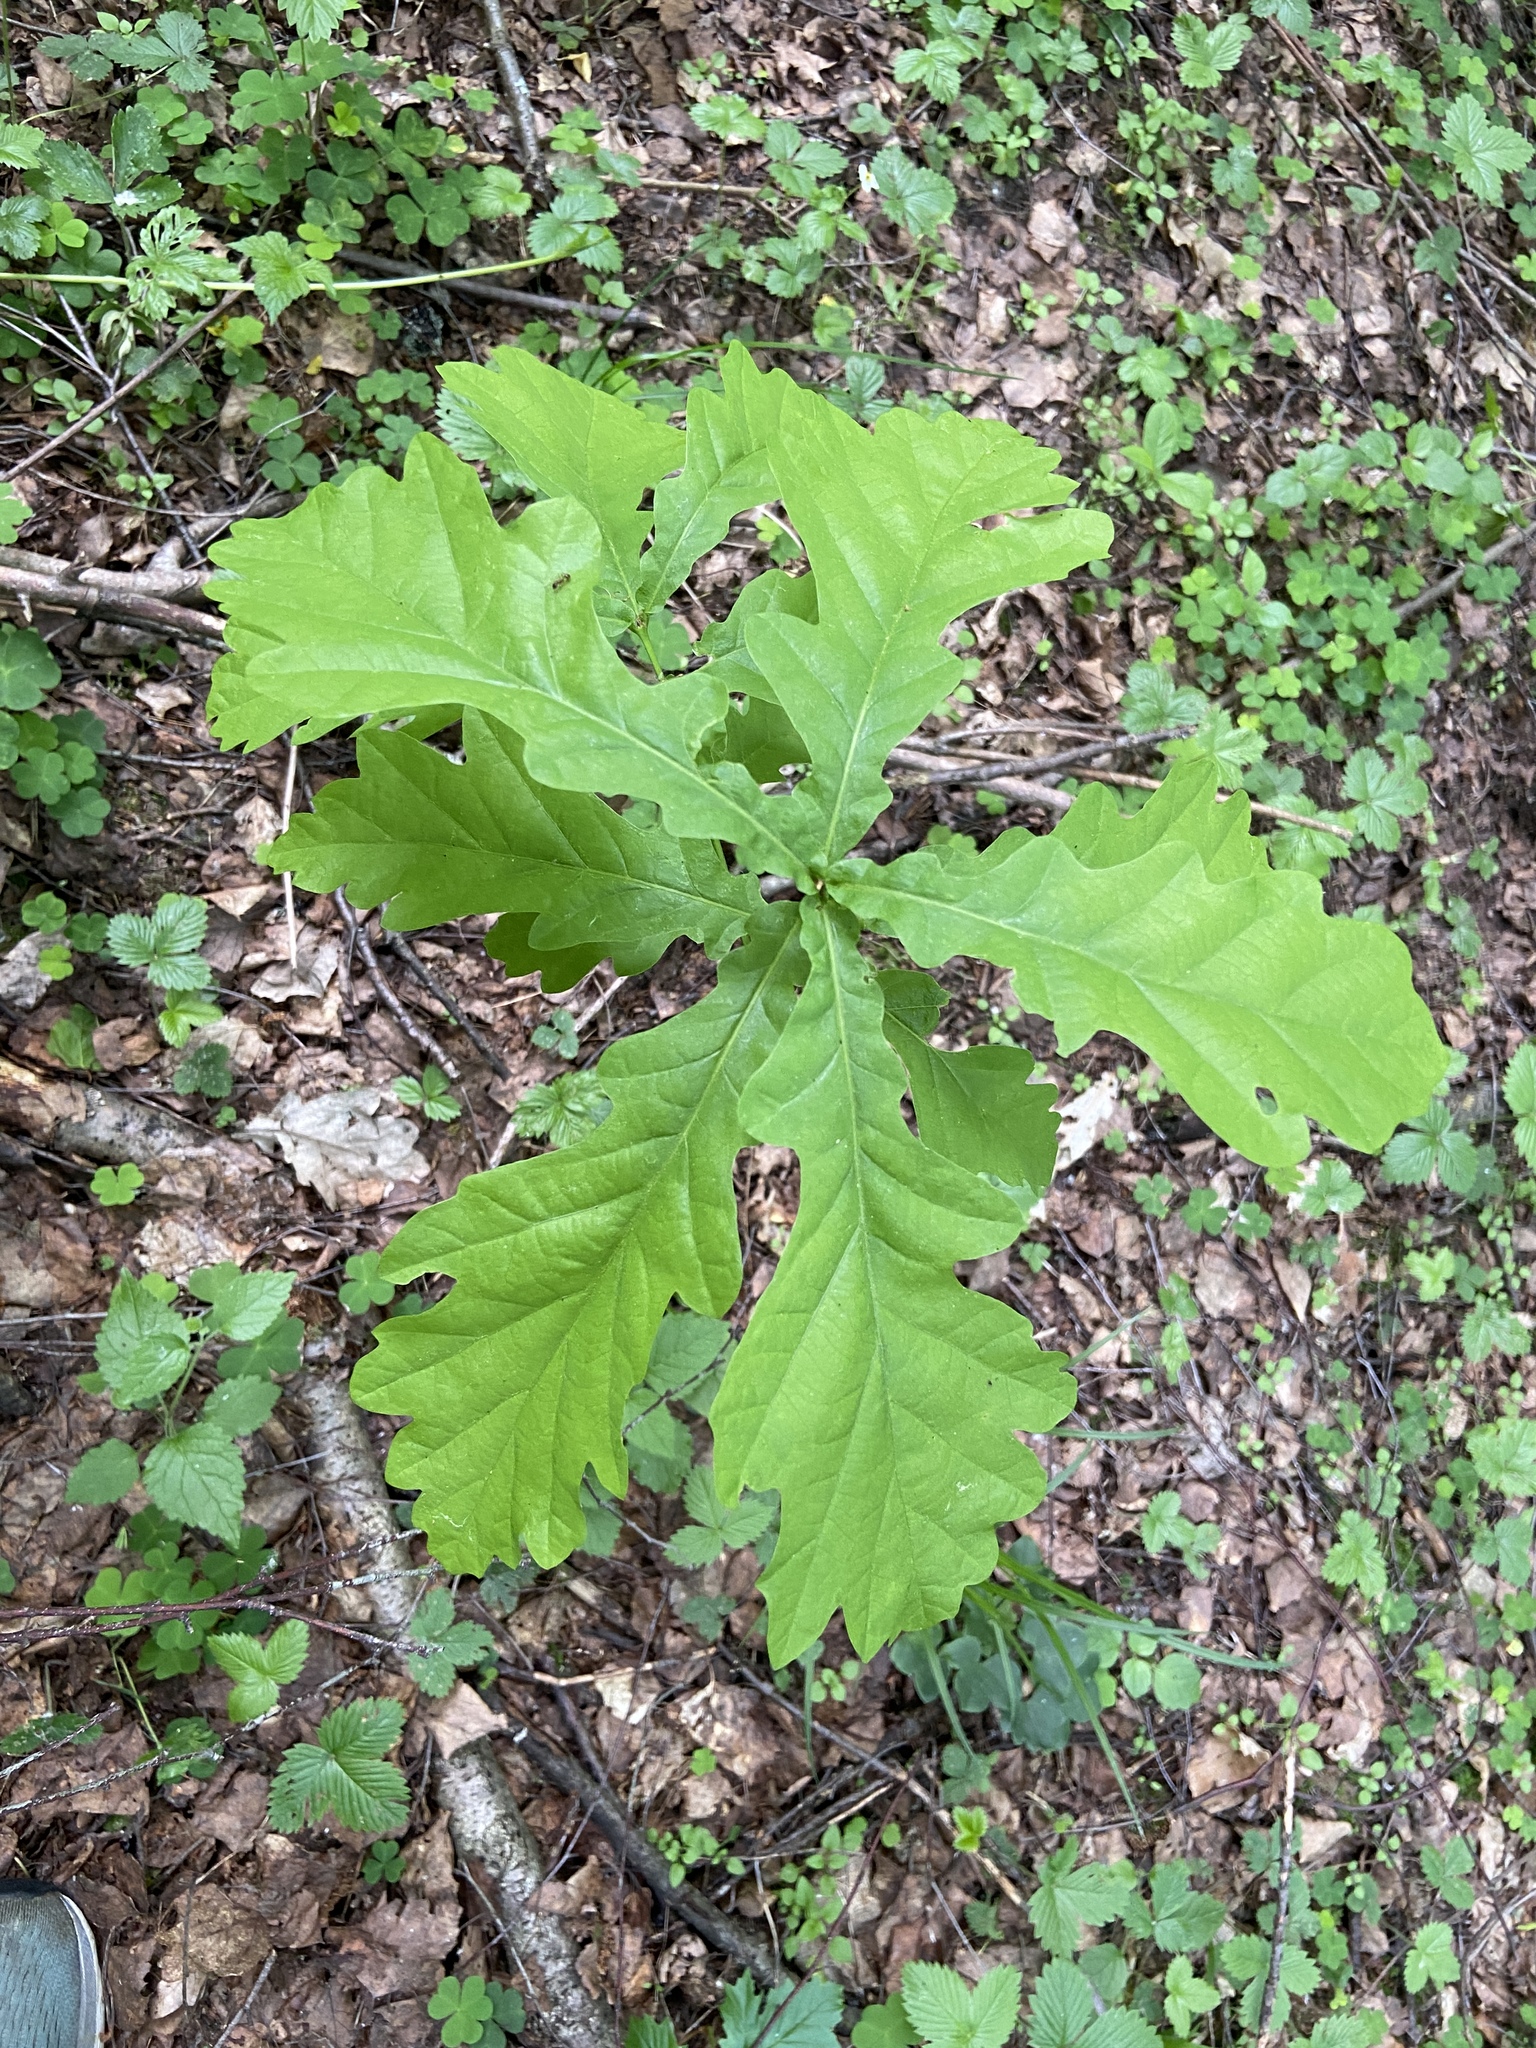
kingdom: Plantae
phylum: Tracheophyta
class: Magnoliopsida
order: Fagales
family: Fagaceae
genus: Quercus
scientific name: Quercus robur
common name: Pedunculate oak
